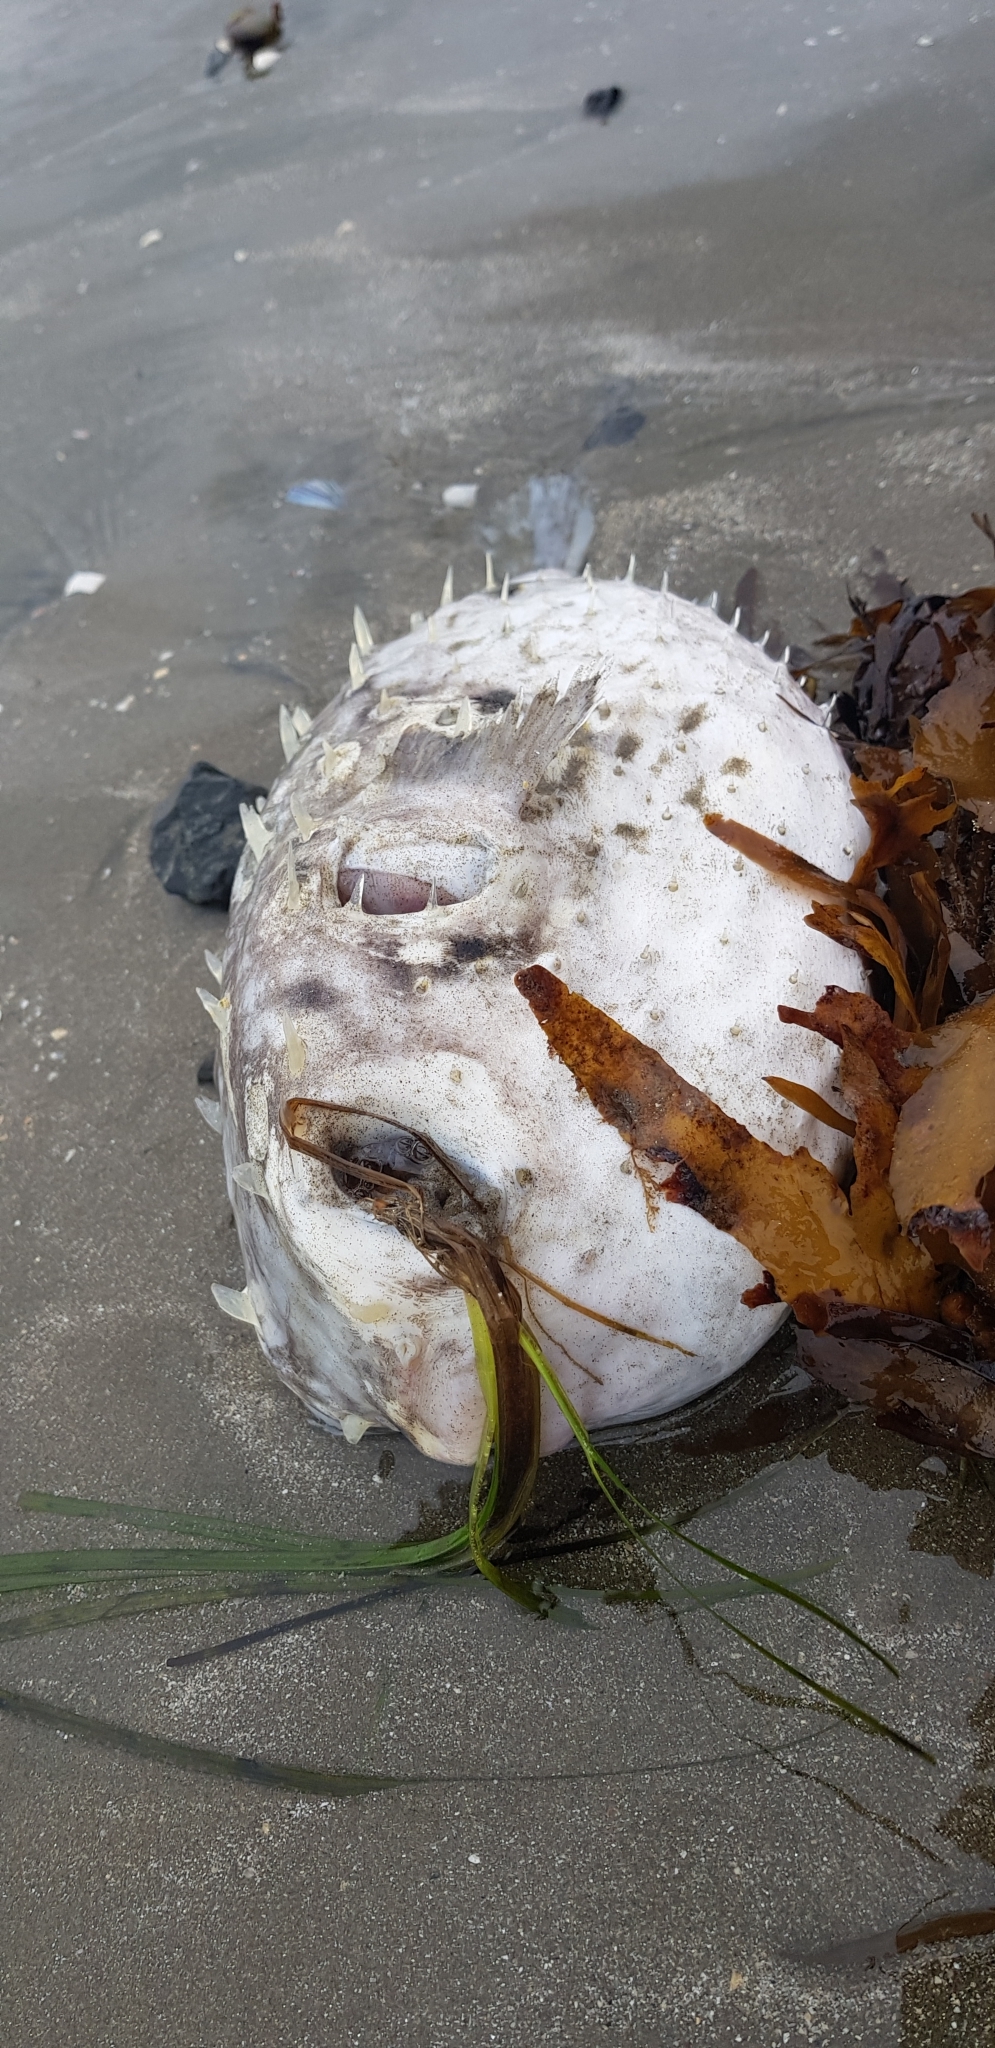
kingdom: Animalia
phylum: Chordata
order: Tetraodontiformes
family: Diodontidae
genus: Allomycterus
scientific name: Allomycterus pilatus
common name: No common name
